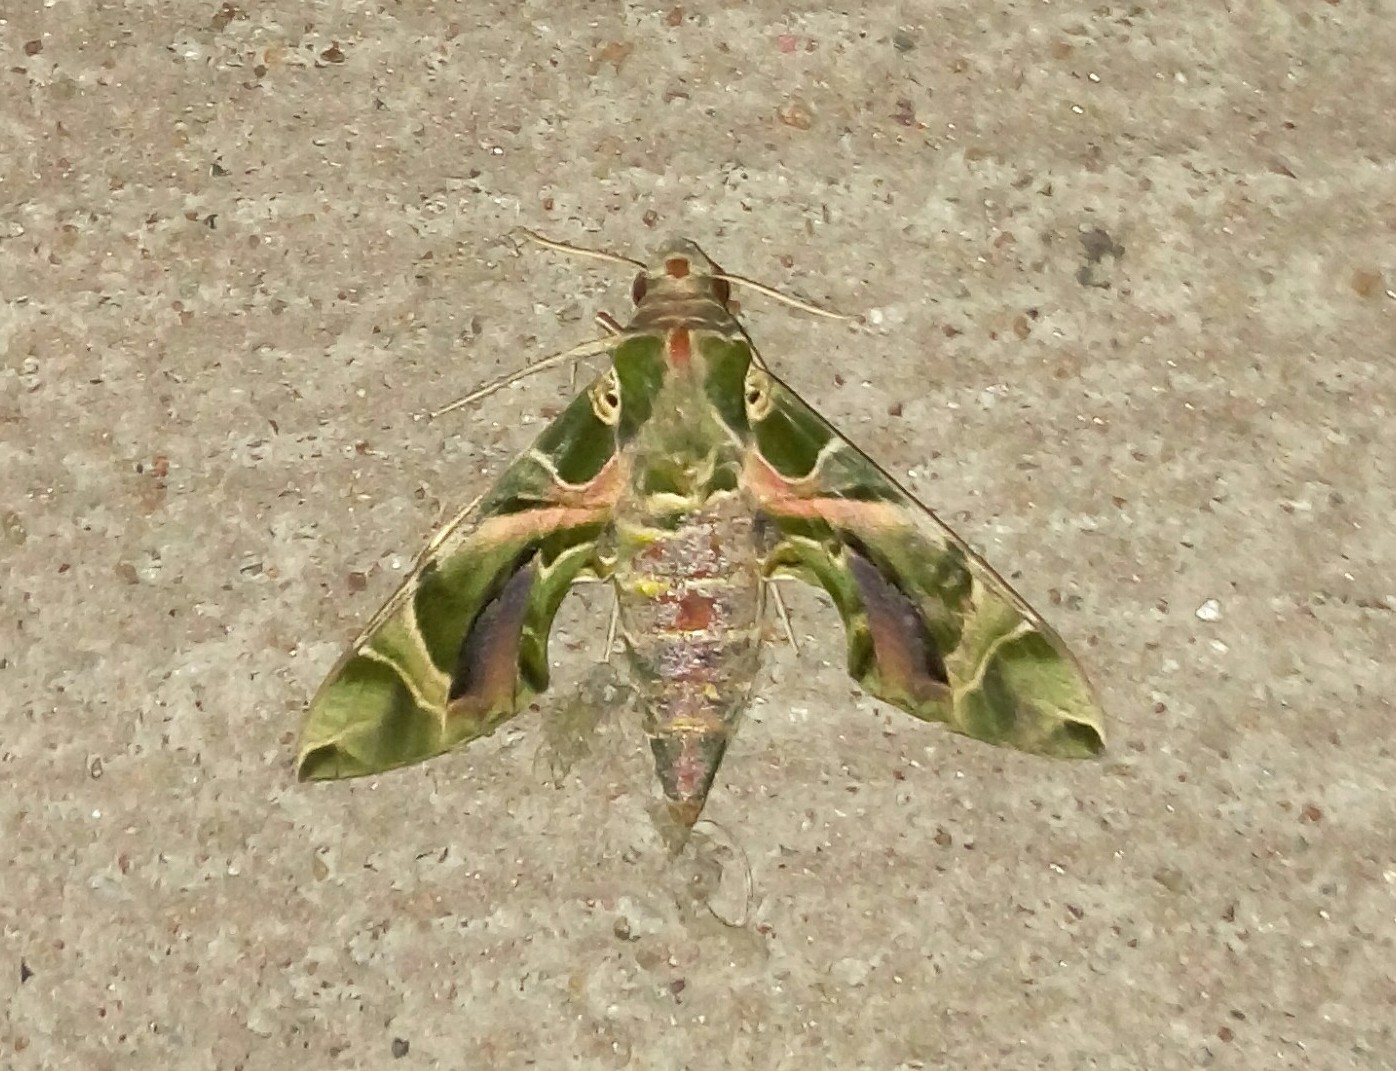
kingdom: Animalia
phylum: Arthropoda
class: Insecta
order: Lepidoptera
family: Sphingidae
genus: Daphnis
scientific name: Daphnis nerii
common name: Oleander hawk-moth
